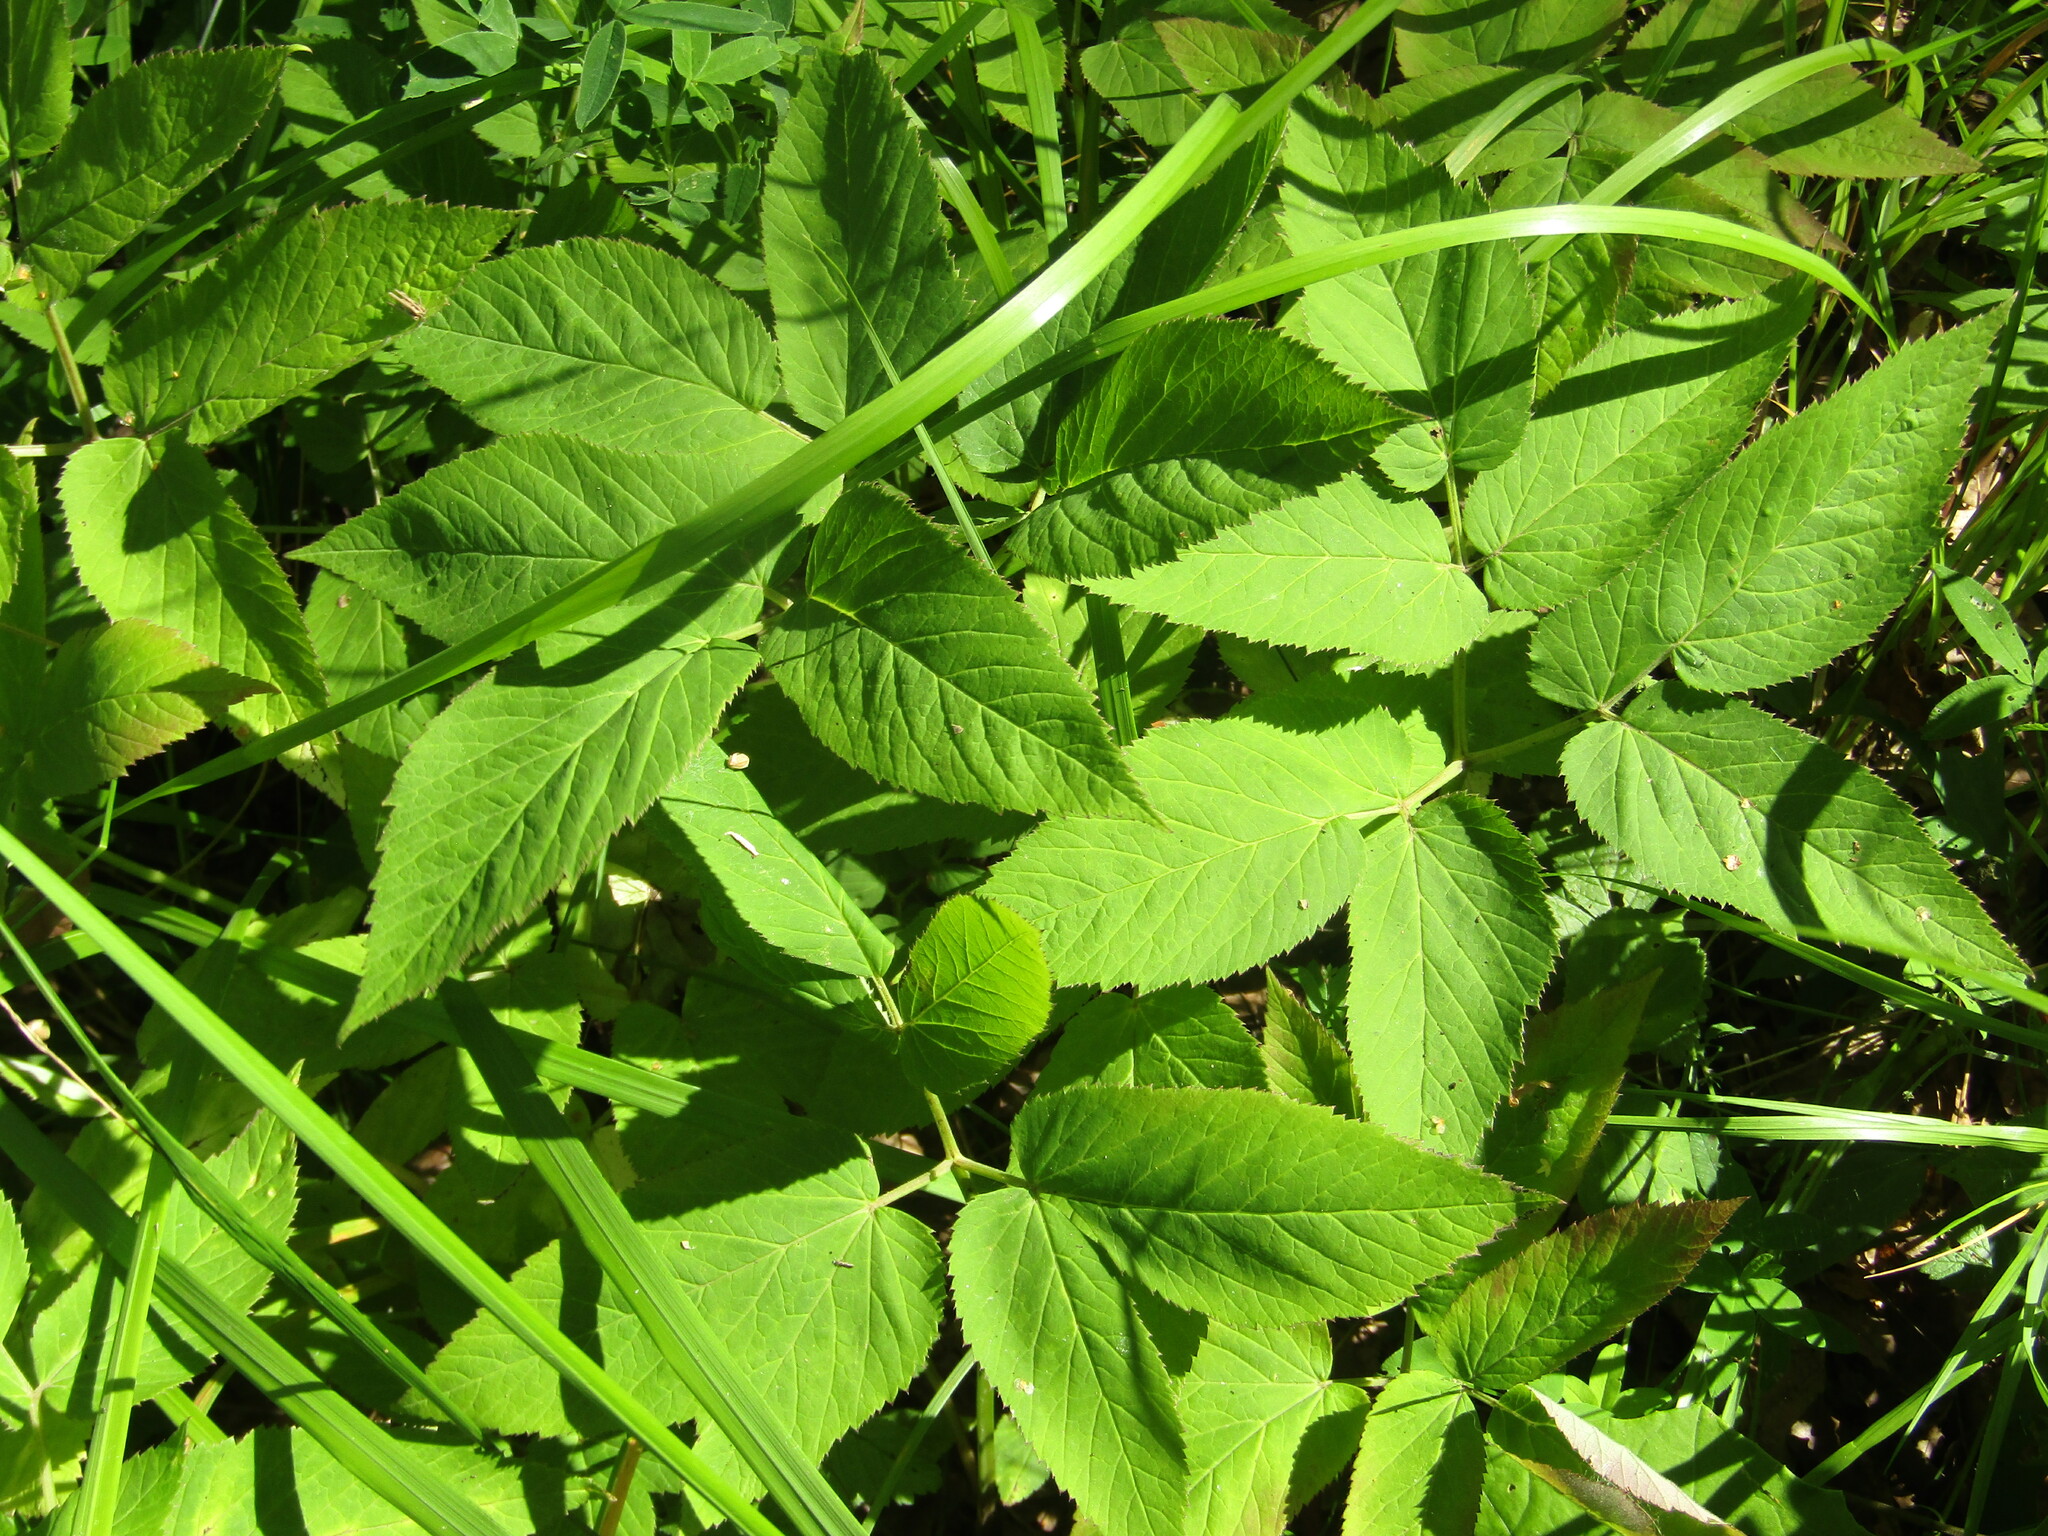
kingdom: Plantae
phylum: Tracheophyta
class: Magnoliopsida
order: Apiales
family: Apiaceae
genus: Aegopodium
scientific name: Aegopodium podagraria
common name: Ground-elder
